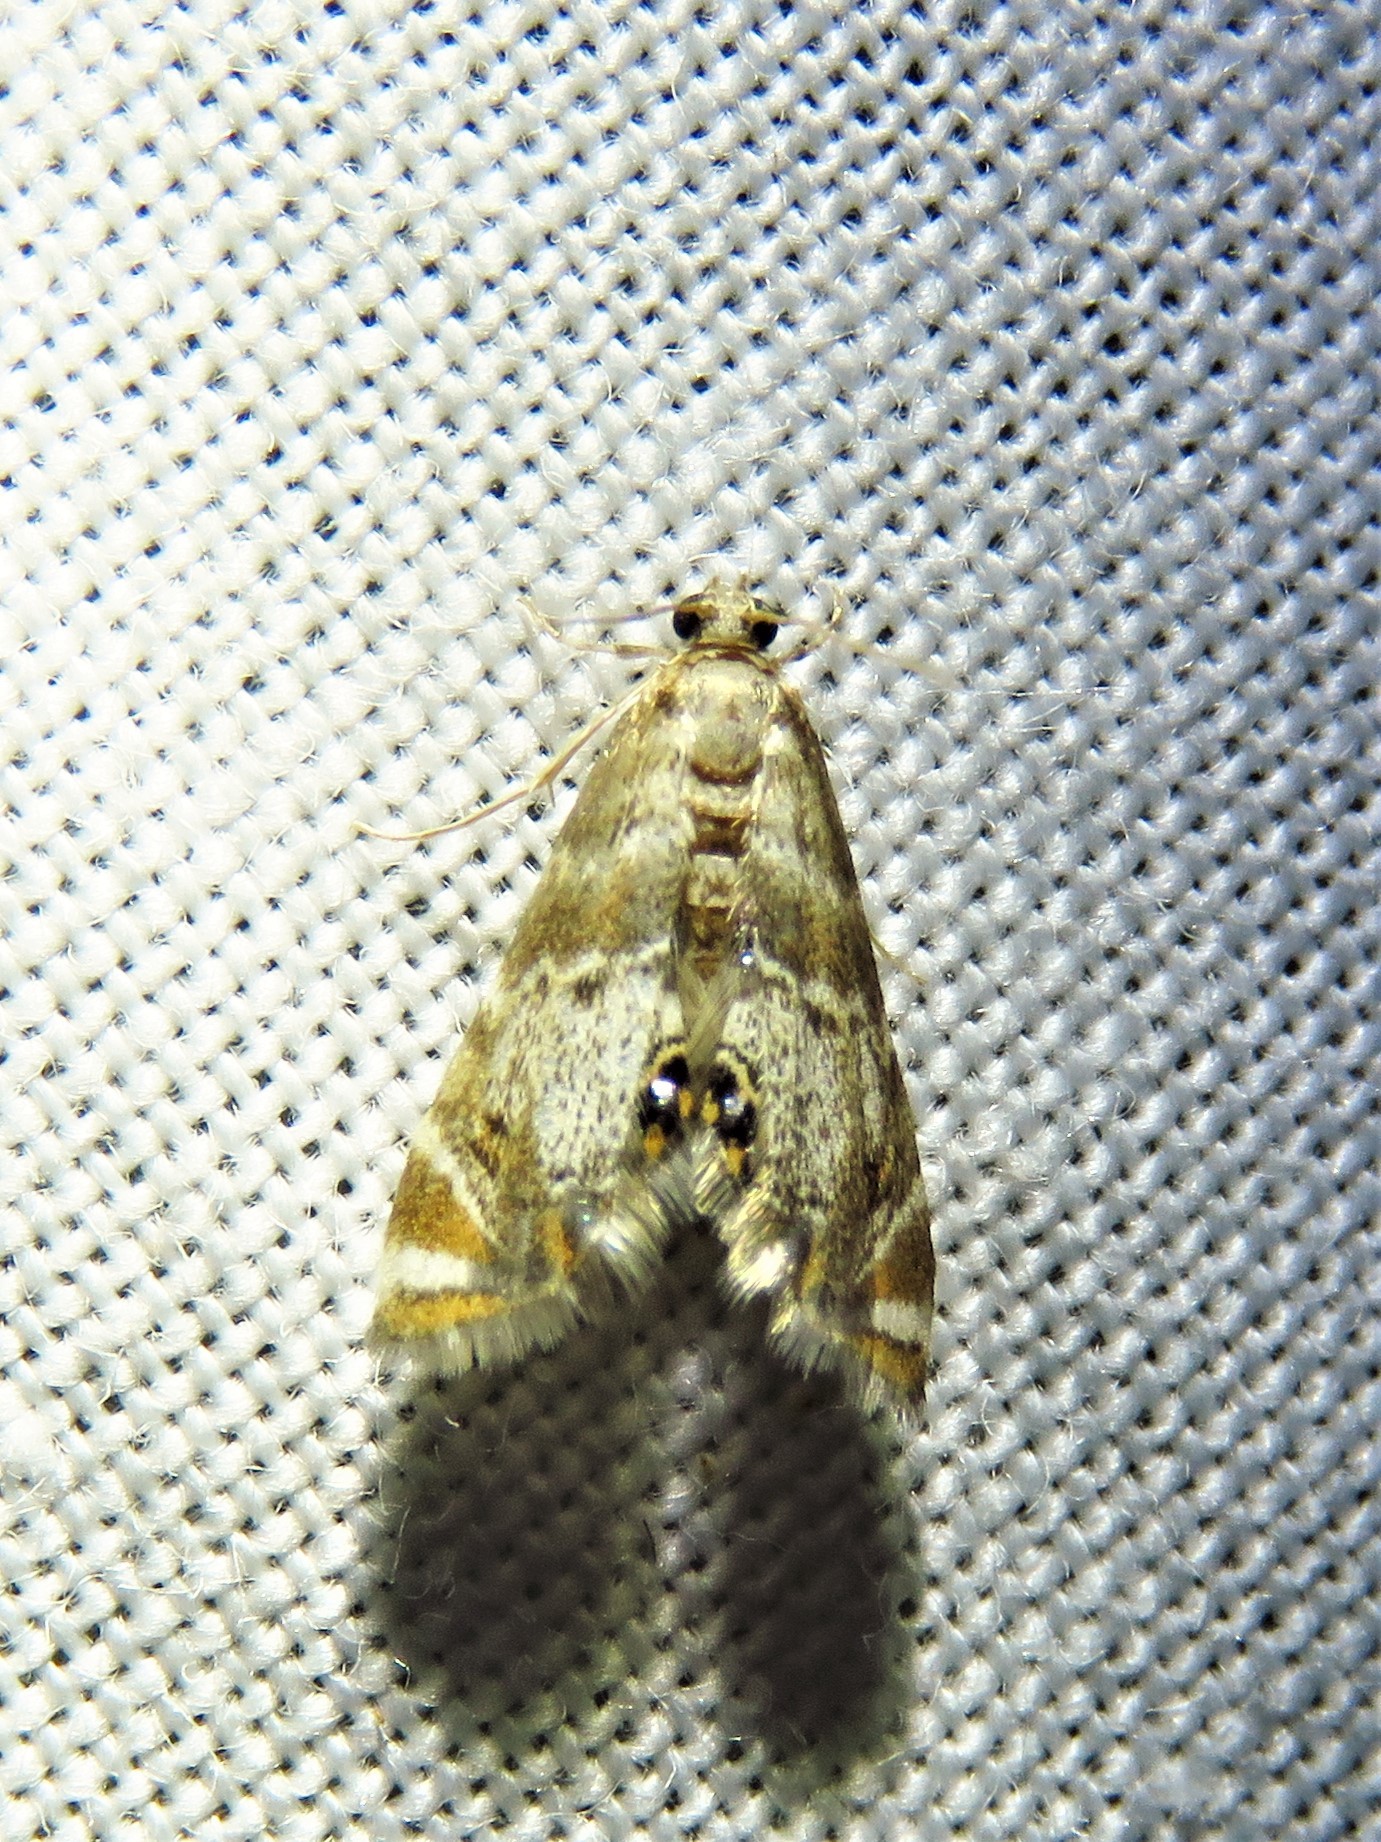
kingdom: Animalia
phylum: Arthropoda
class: Insecta
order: Lepidoptera
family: Crambidae
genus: Petrophila
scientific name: Petrophila fulicalis
